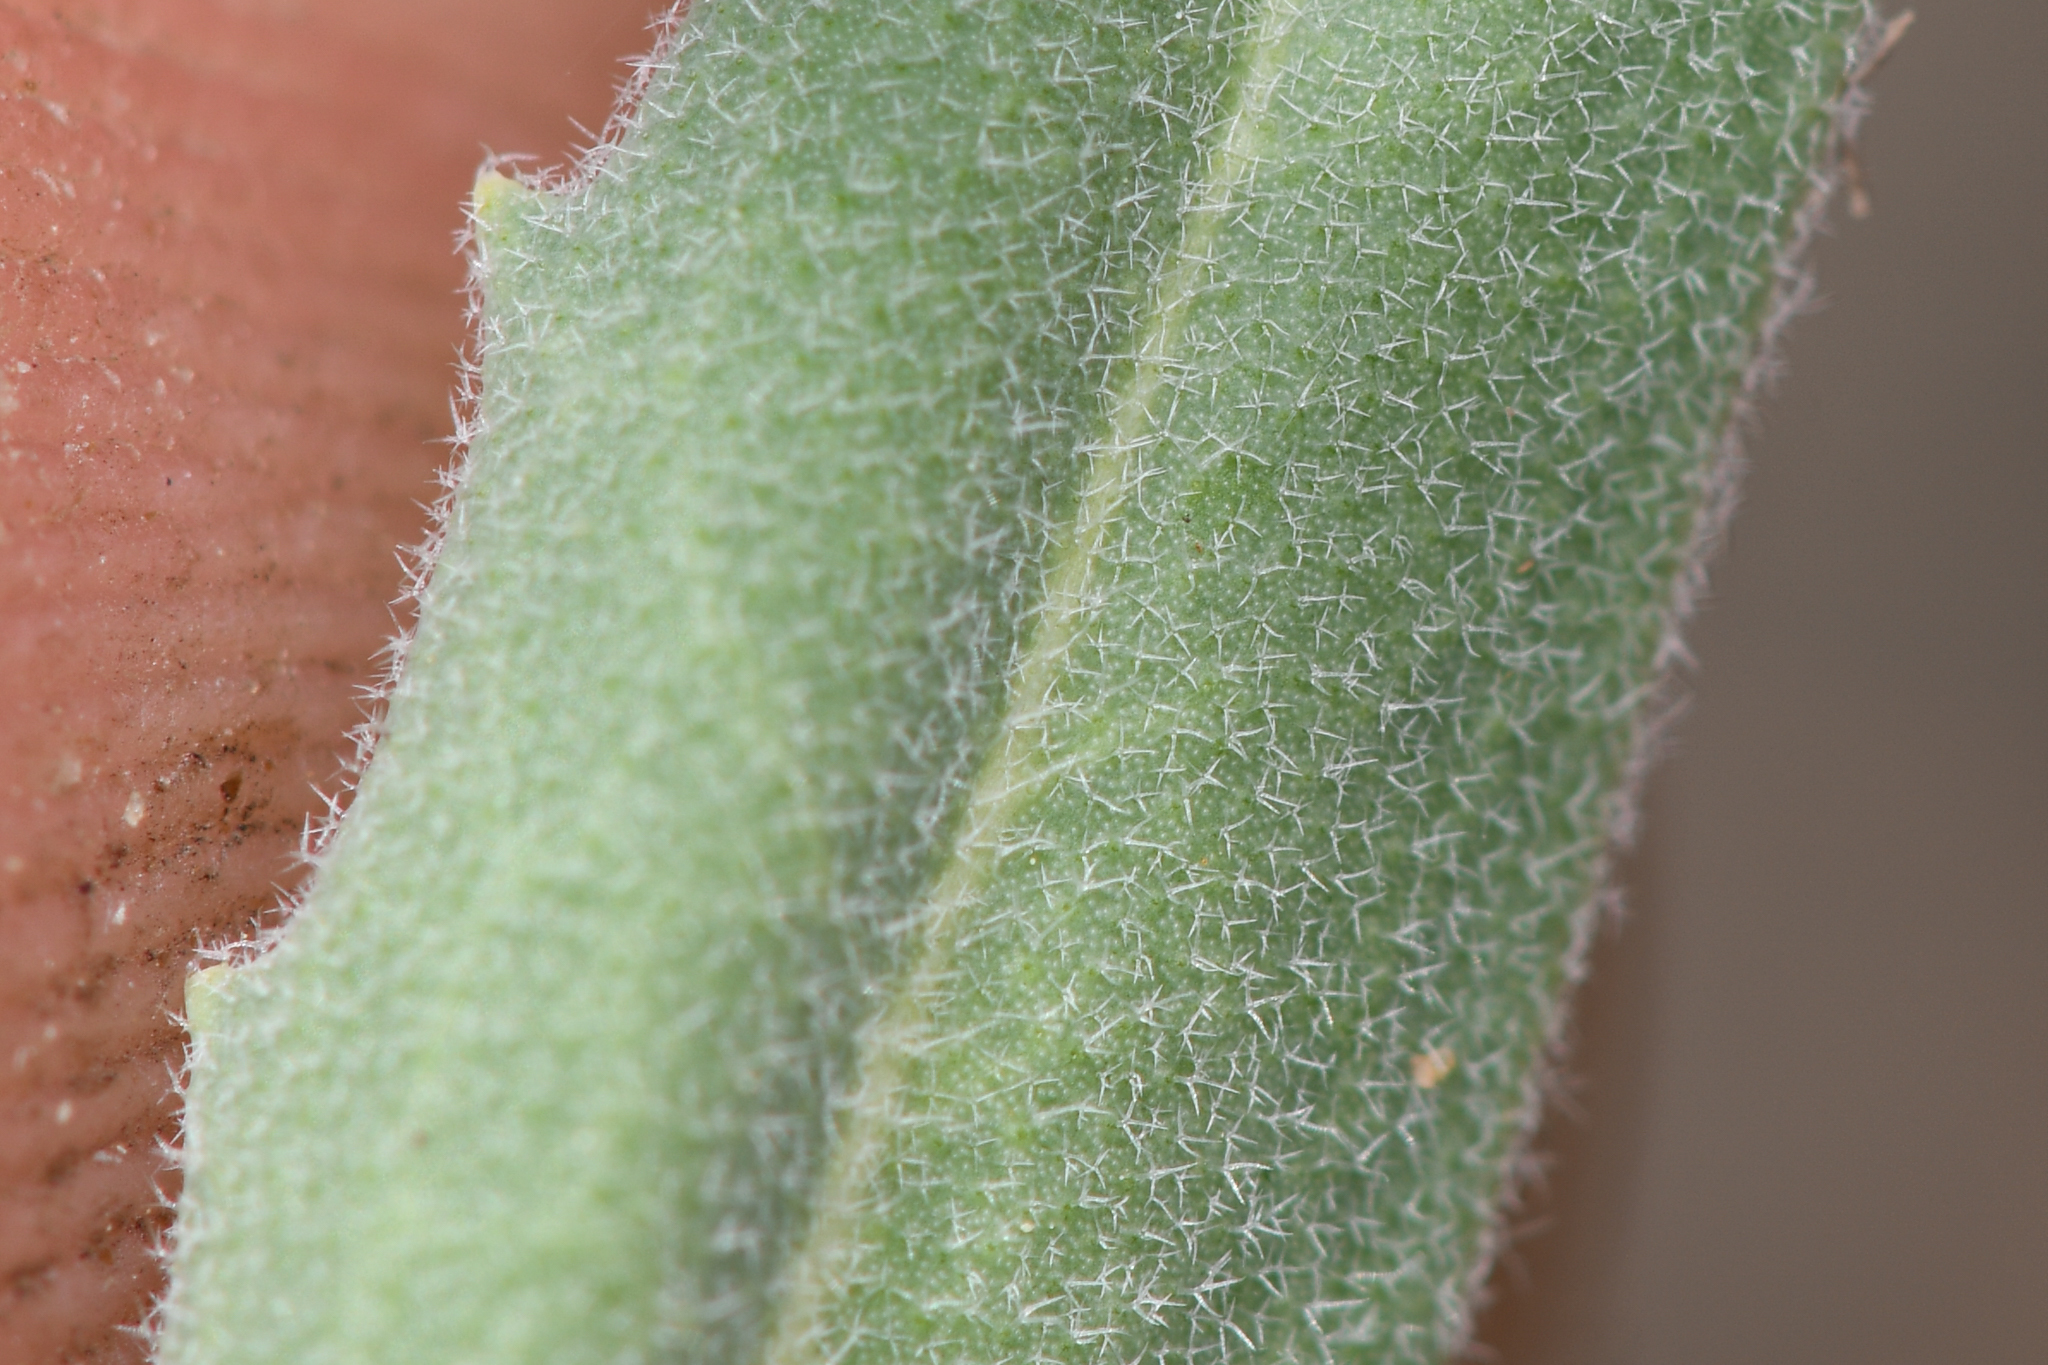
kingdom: Plantae
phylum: Tracheophyta
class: Magnoliopsida
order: Brassicales
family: Brassicaceae
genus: Boechera
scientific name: Boechera californica
